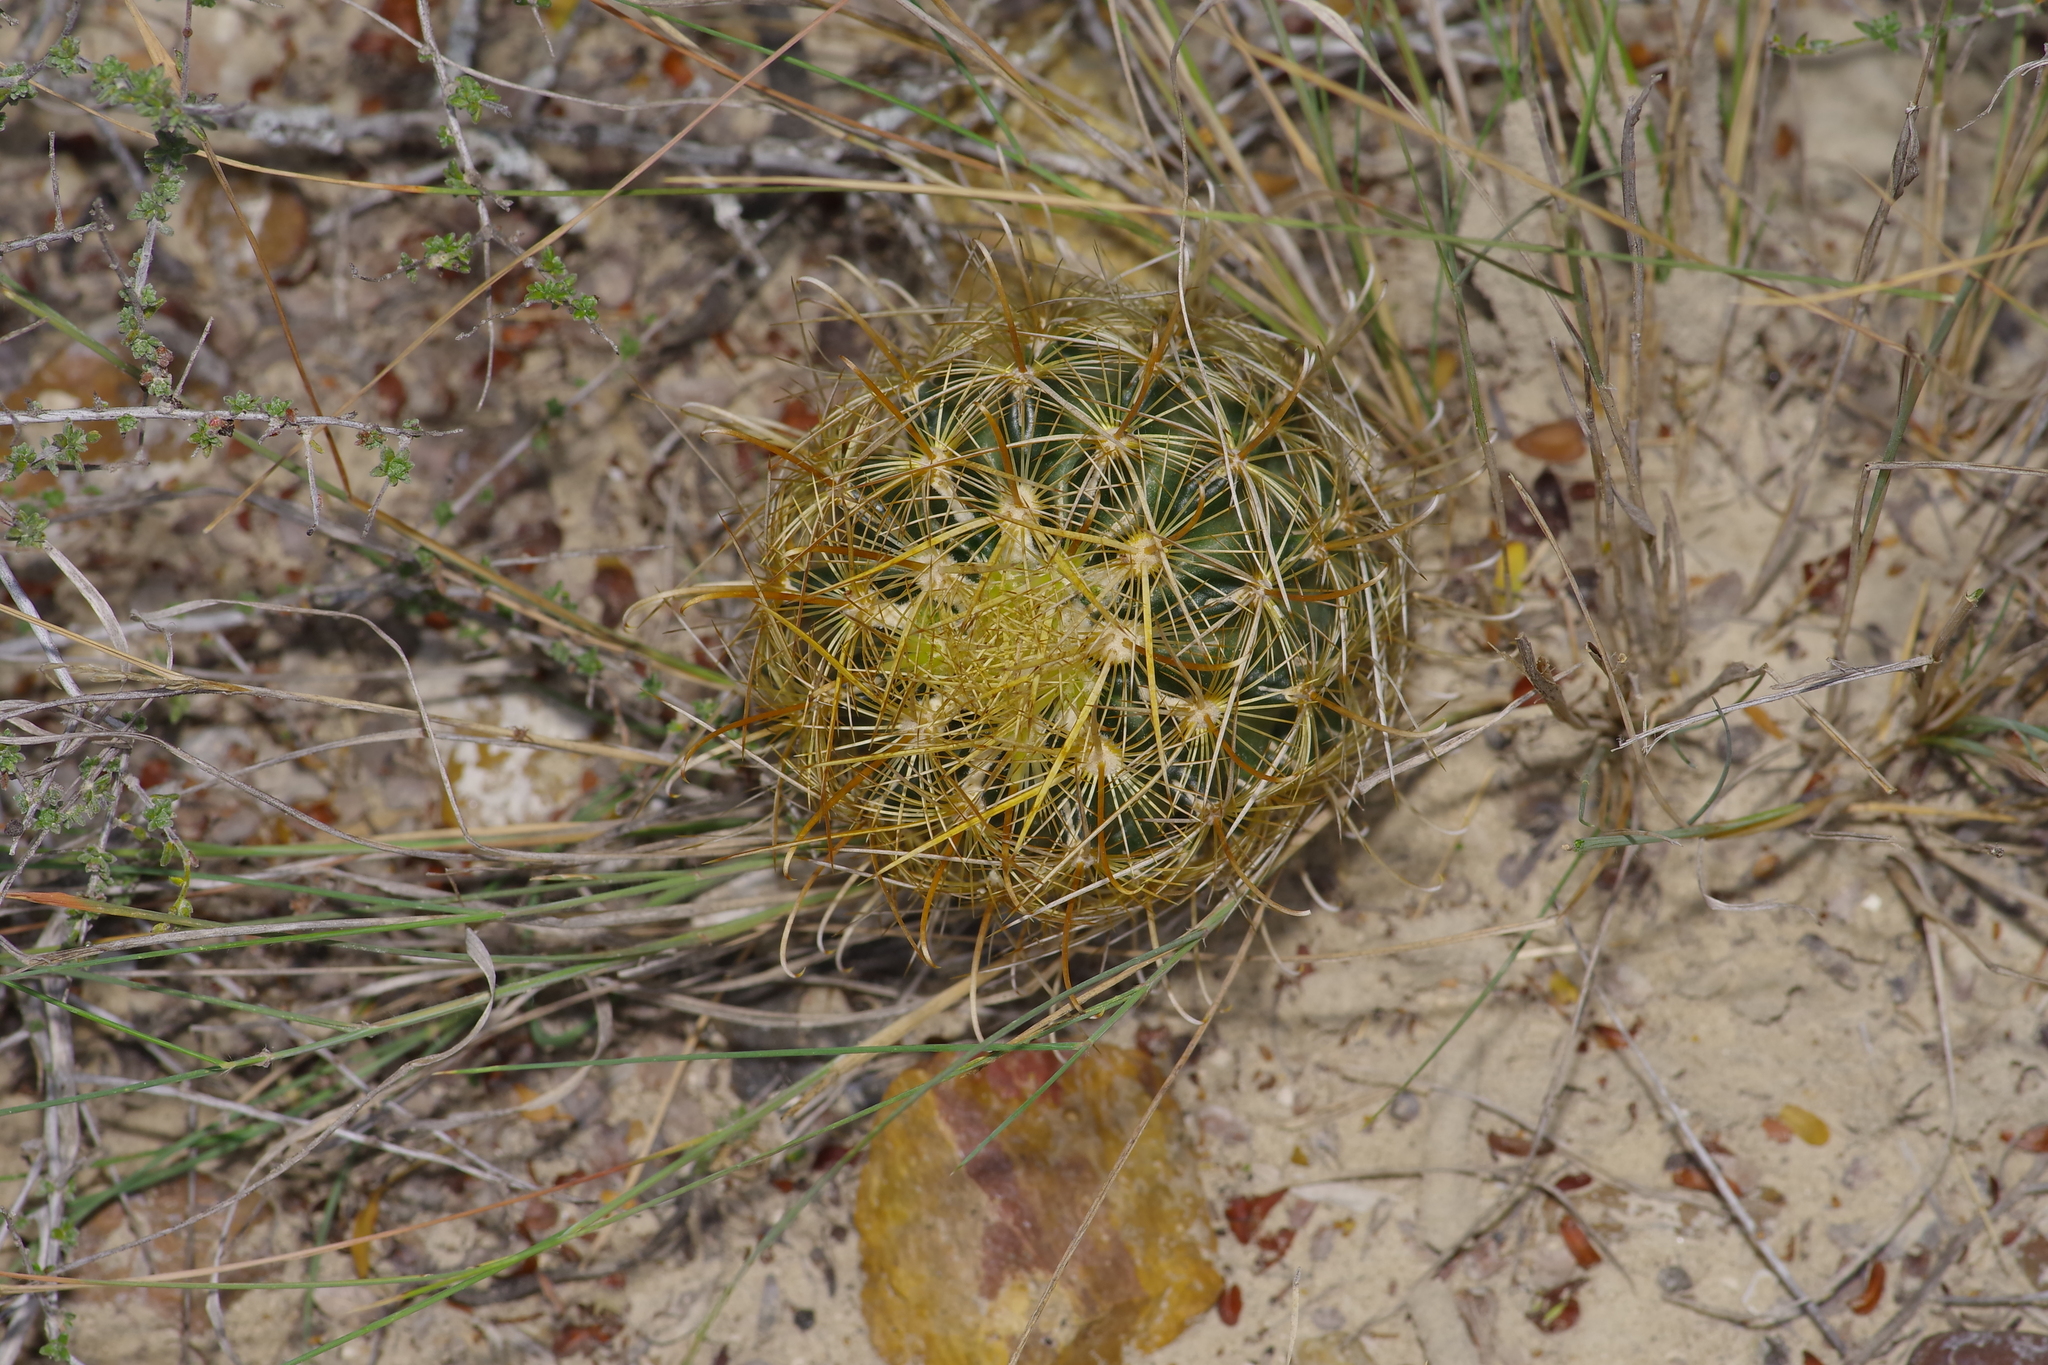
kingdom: Plantae
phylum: Tracheophyta
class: Magnoliopsida
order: Caryophyllales
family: Cactaceae
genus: Sclerocactus
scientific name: Sclerocactus scheerii
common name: Scheer's fish-hook cactus
